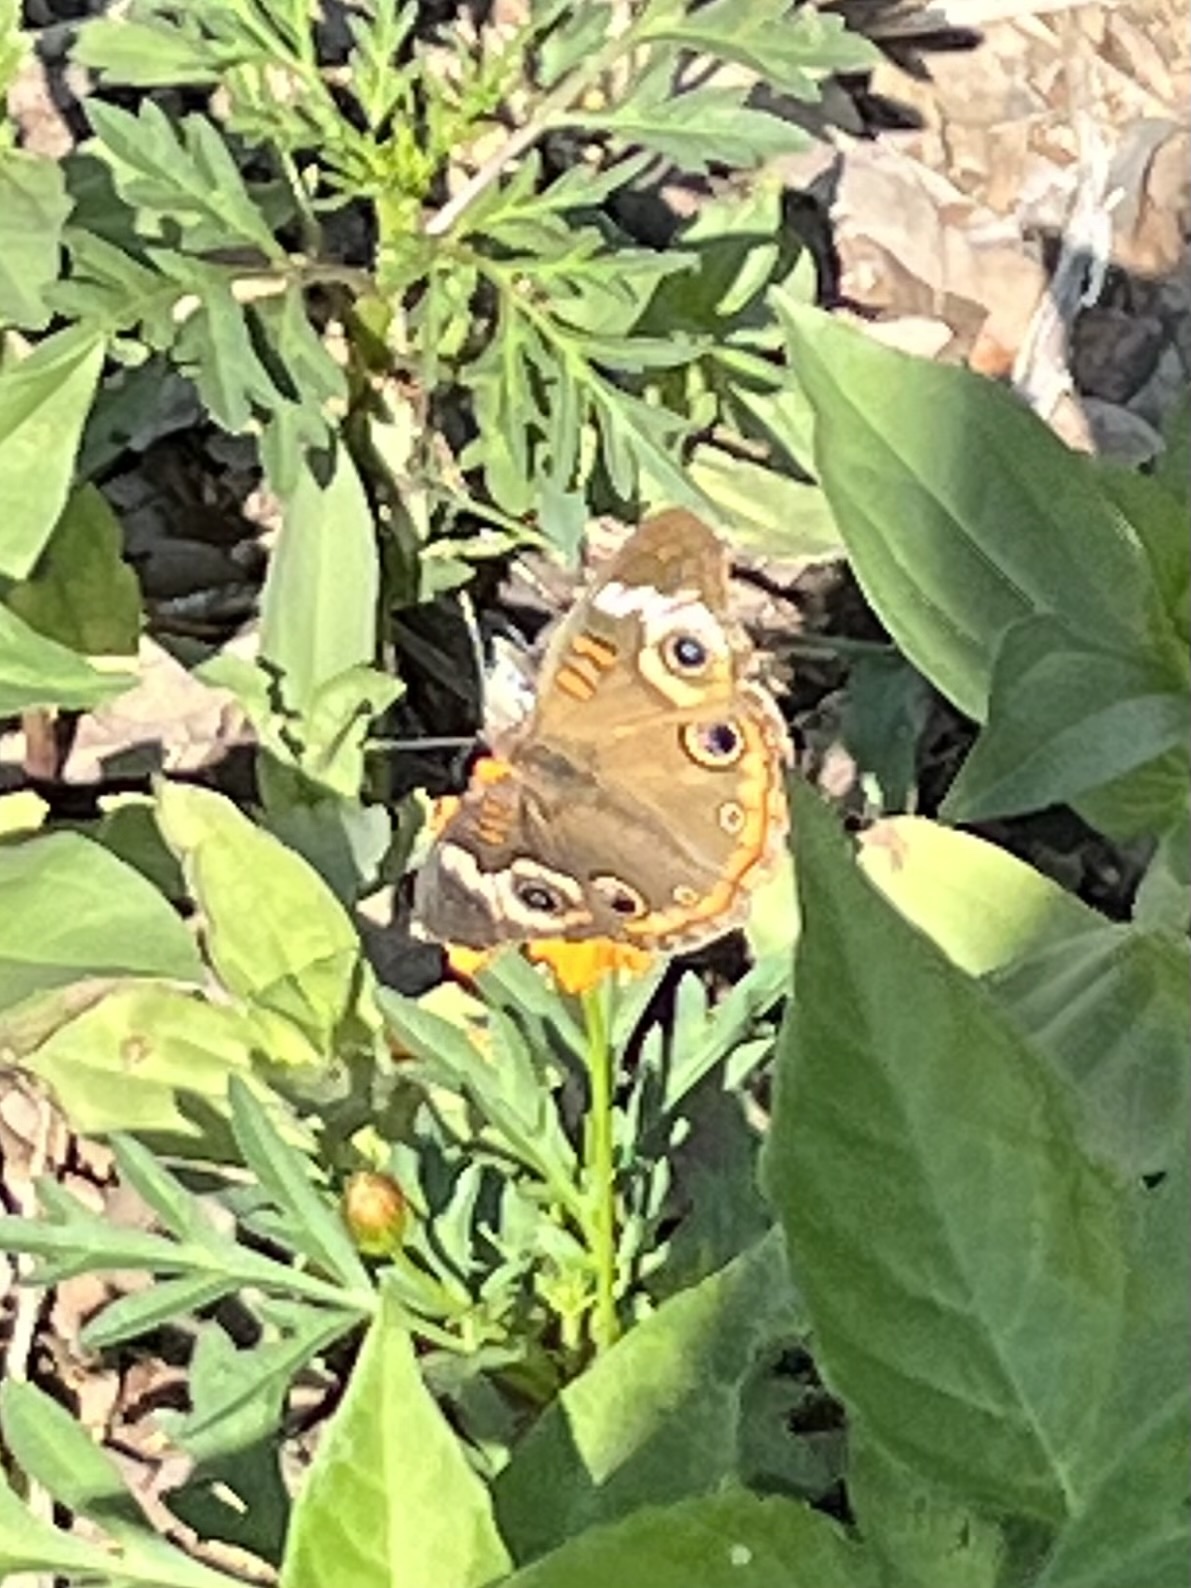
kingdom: Animalia
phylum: Arthropoda
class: Insecta
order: Lepidoptera
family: Nymphalidae
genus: Junonia
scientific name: Junonia coenia
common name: Common buckeye
